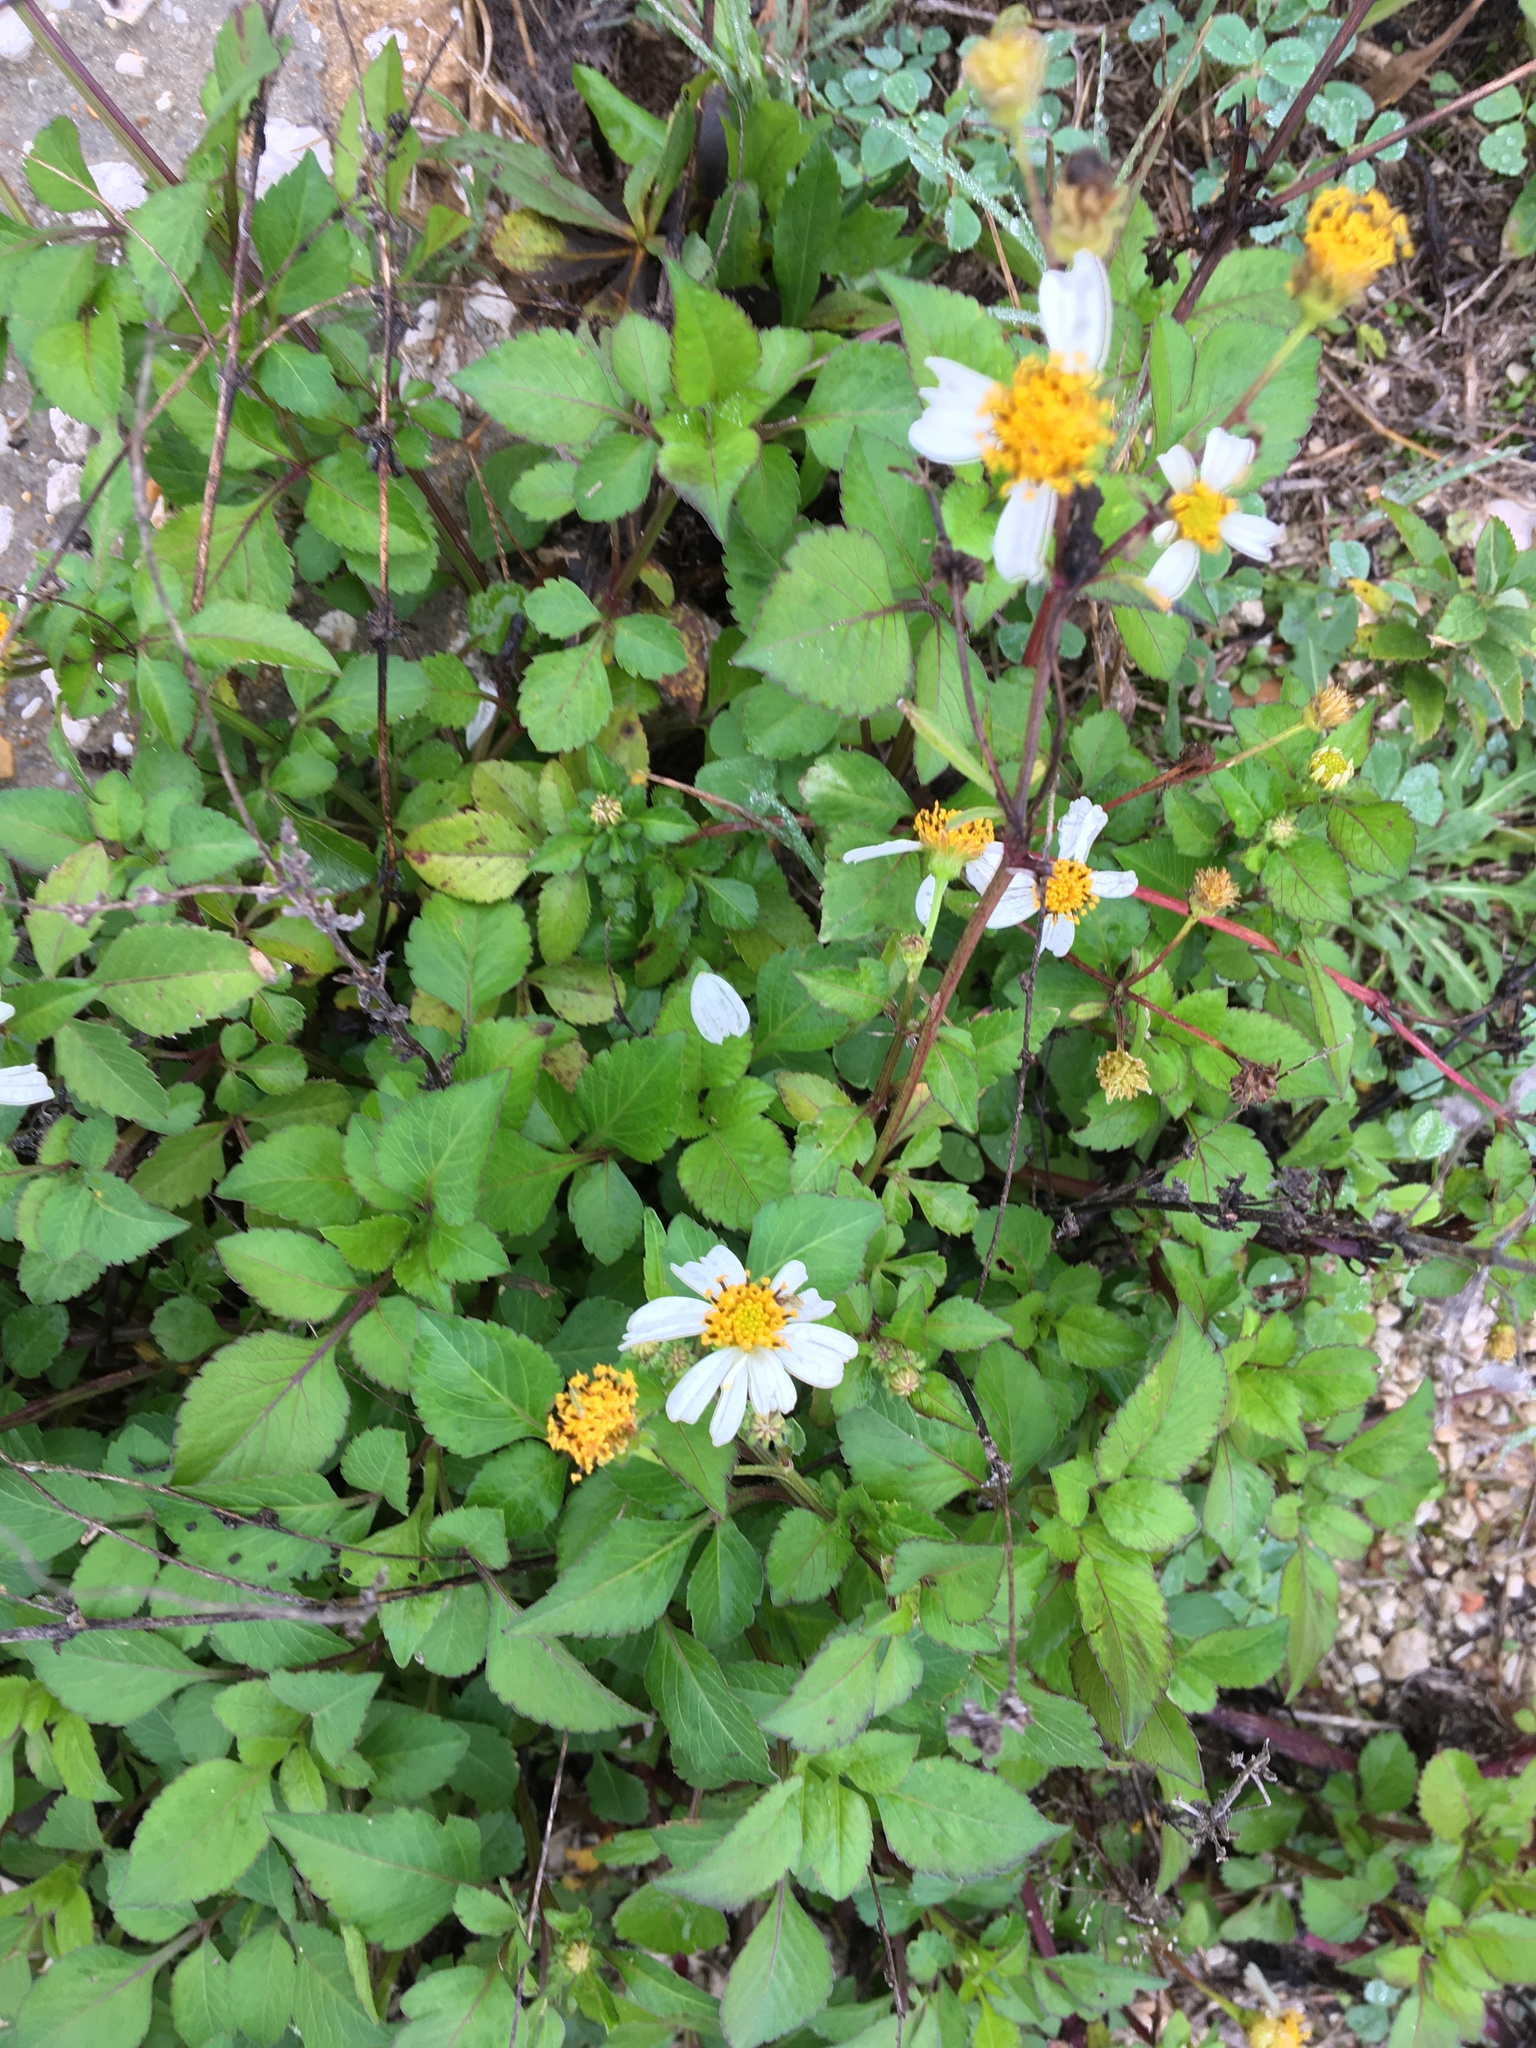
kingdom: Plantae
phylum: Tracheophyta
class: Magnoliopsida
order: Asterales
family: Asteraceae
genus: Bidens
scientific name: Bidens alba
